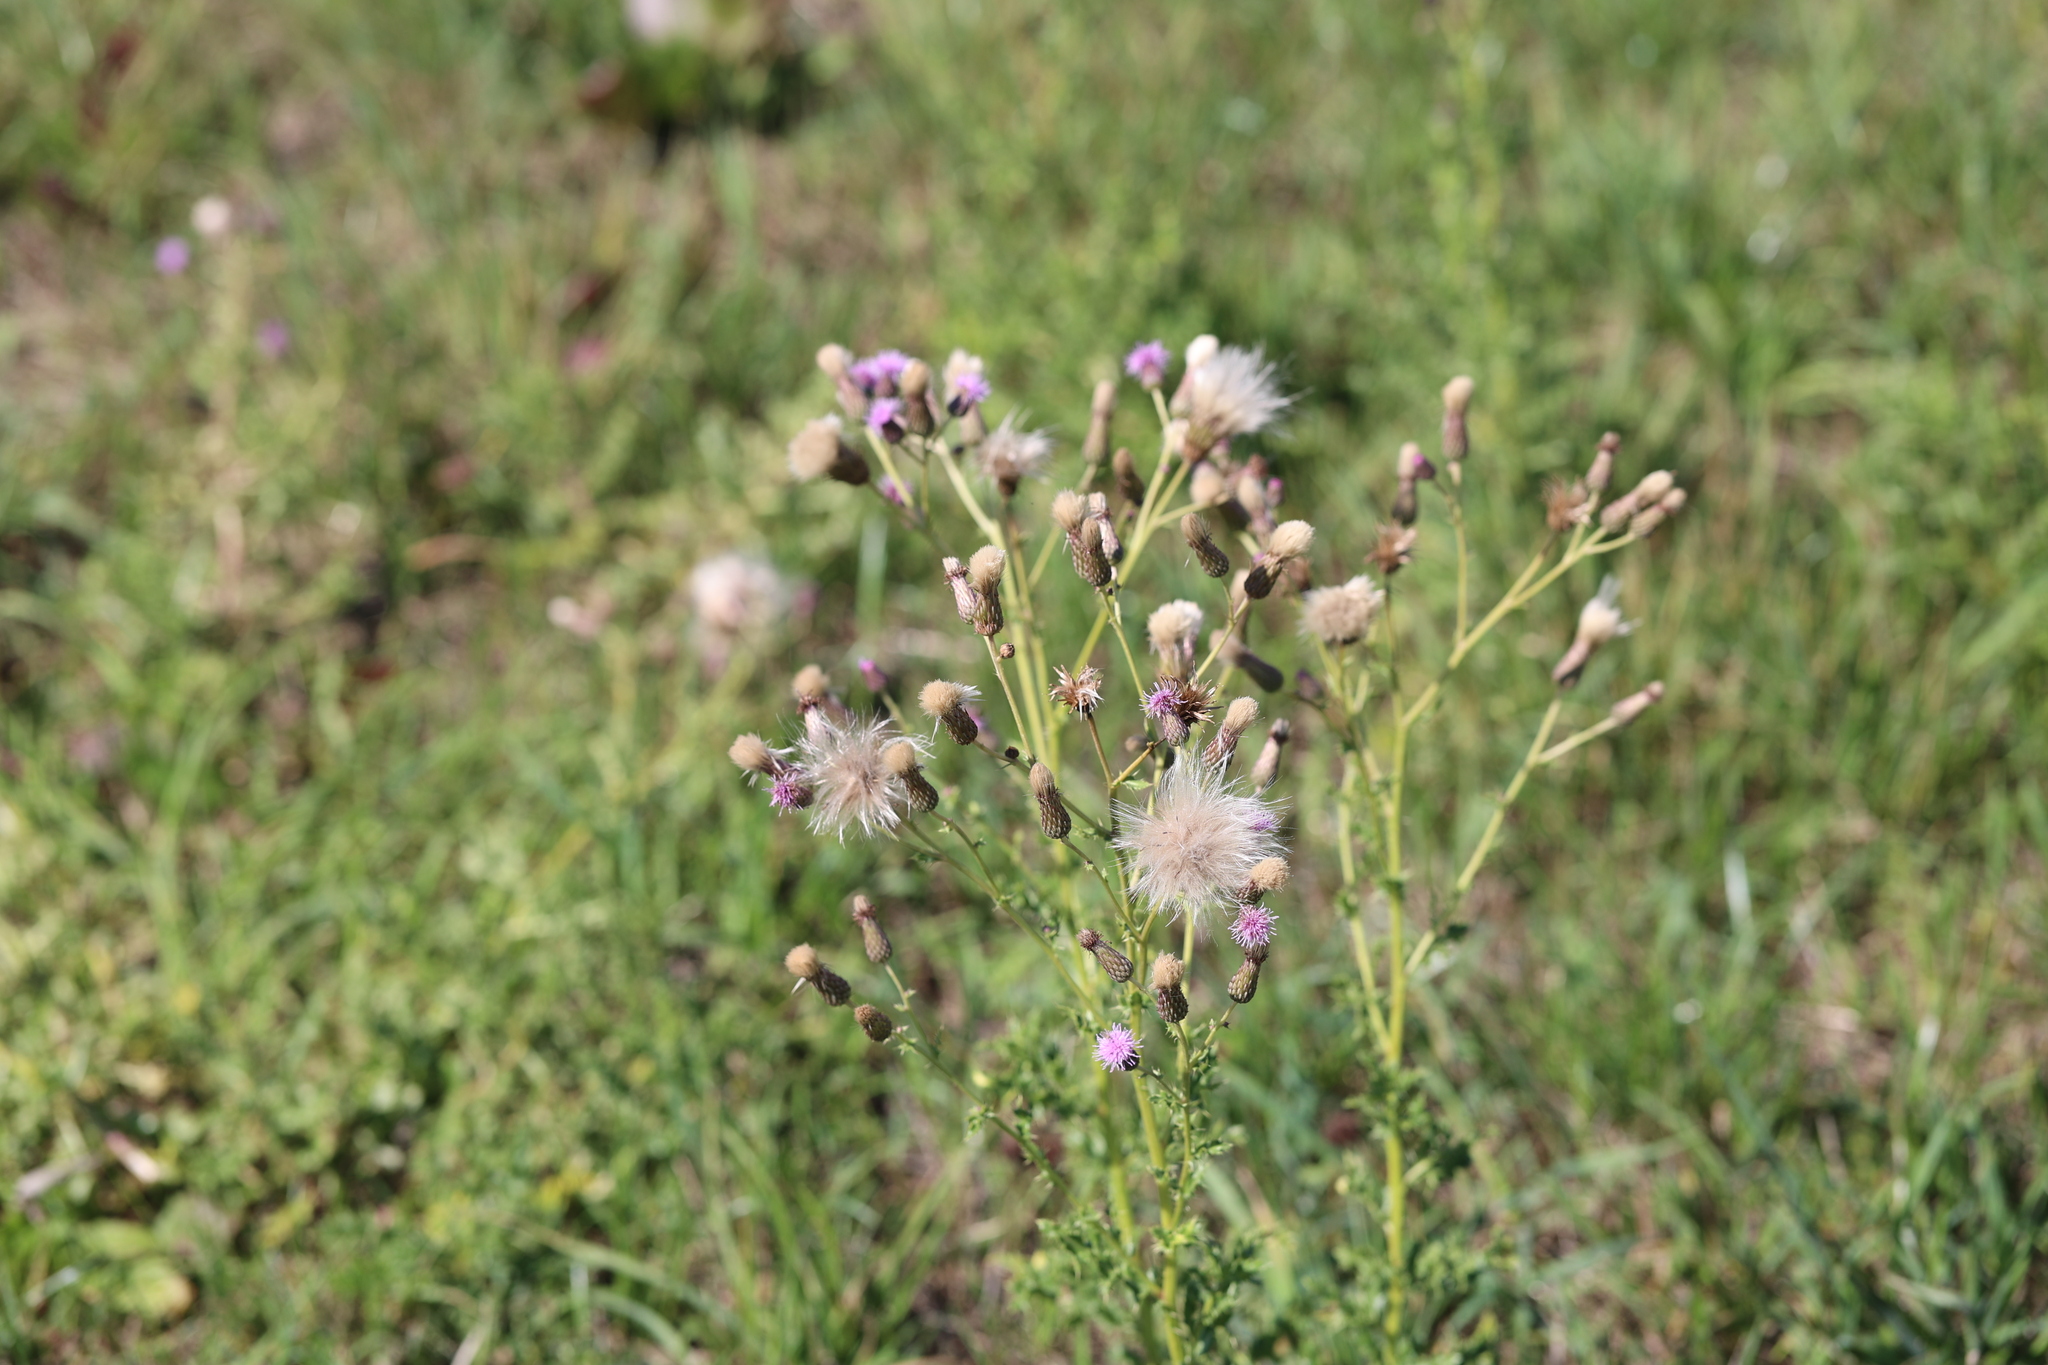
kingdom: Plantae
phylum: Tracheophyta
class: Magnoliopsida
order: Asterales
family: Asteraceae
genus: Cirsium
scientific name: Cirsium arvense
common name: Creeping thistle
